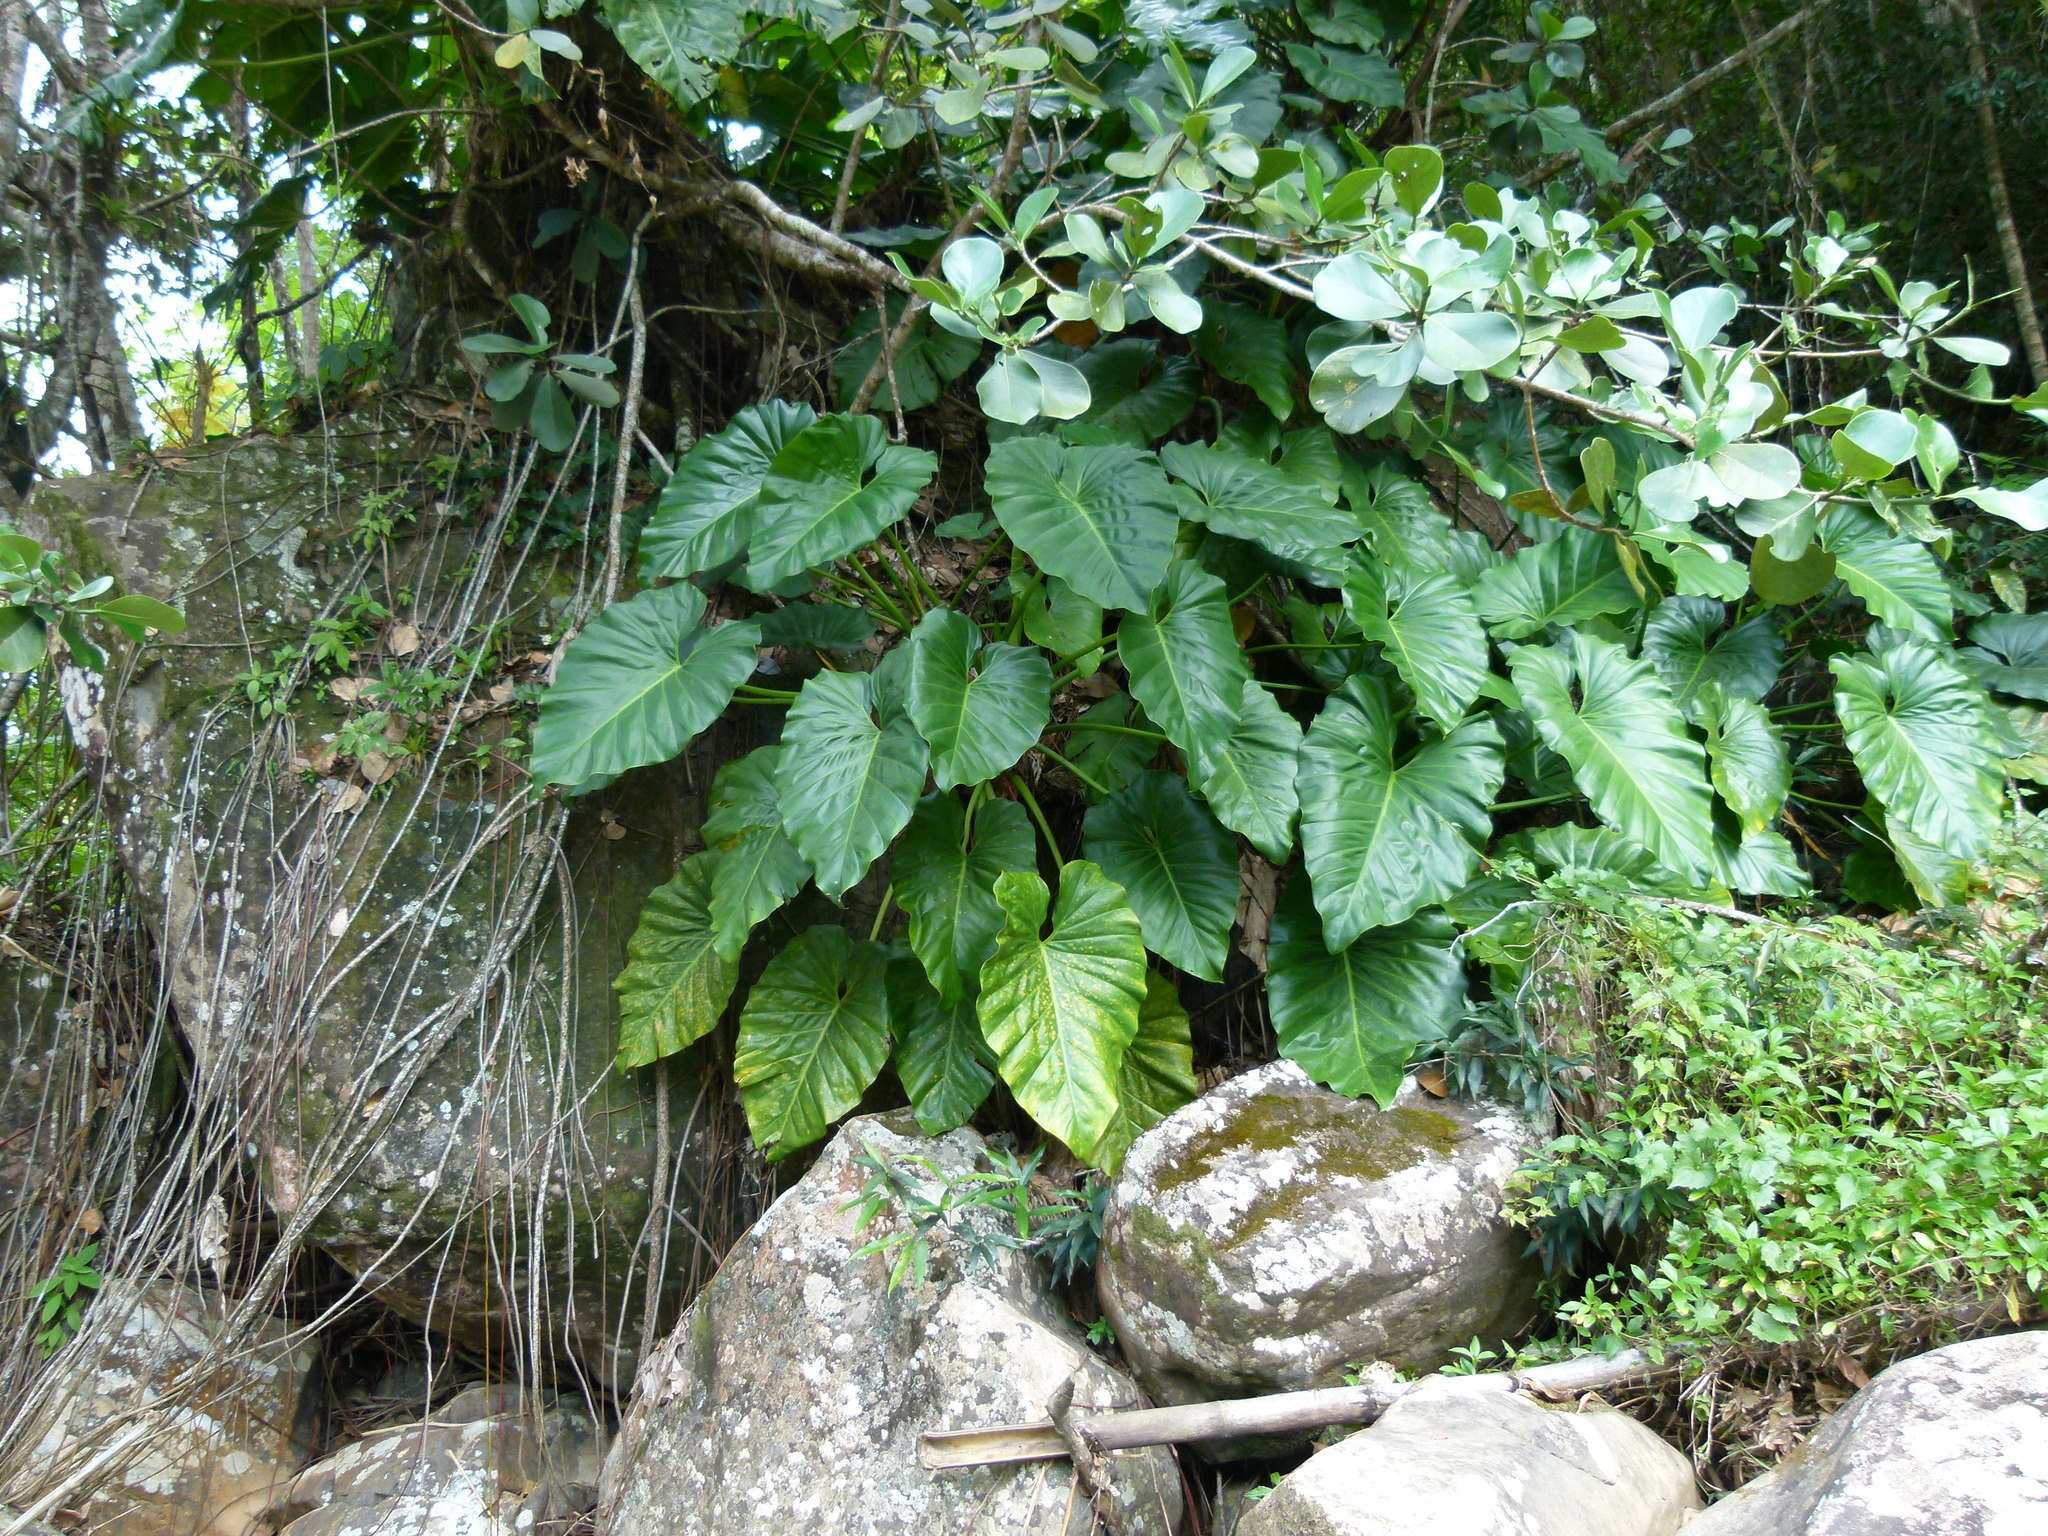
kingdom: Plantae
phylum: Tracheophyta
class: Liliopsida
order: Alismatales
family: Araceae
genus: Philodendron
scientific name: Philodendron giganteum
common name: Giant philodendron
